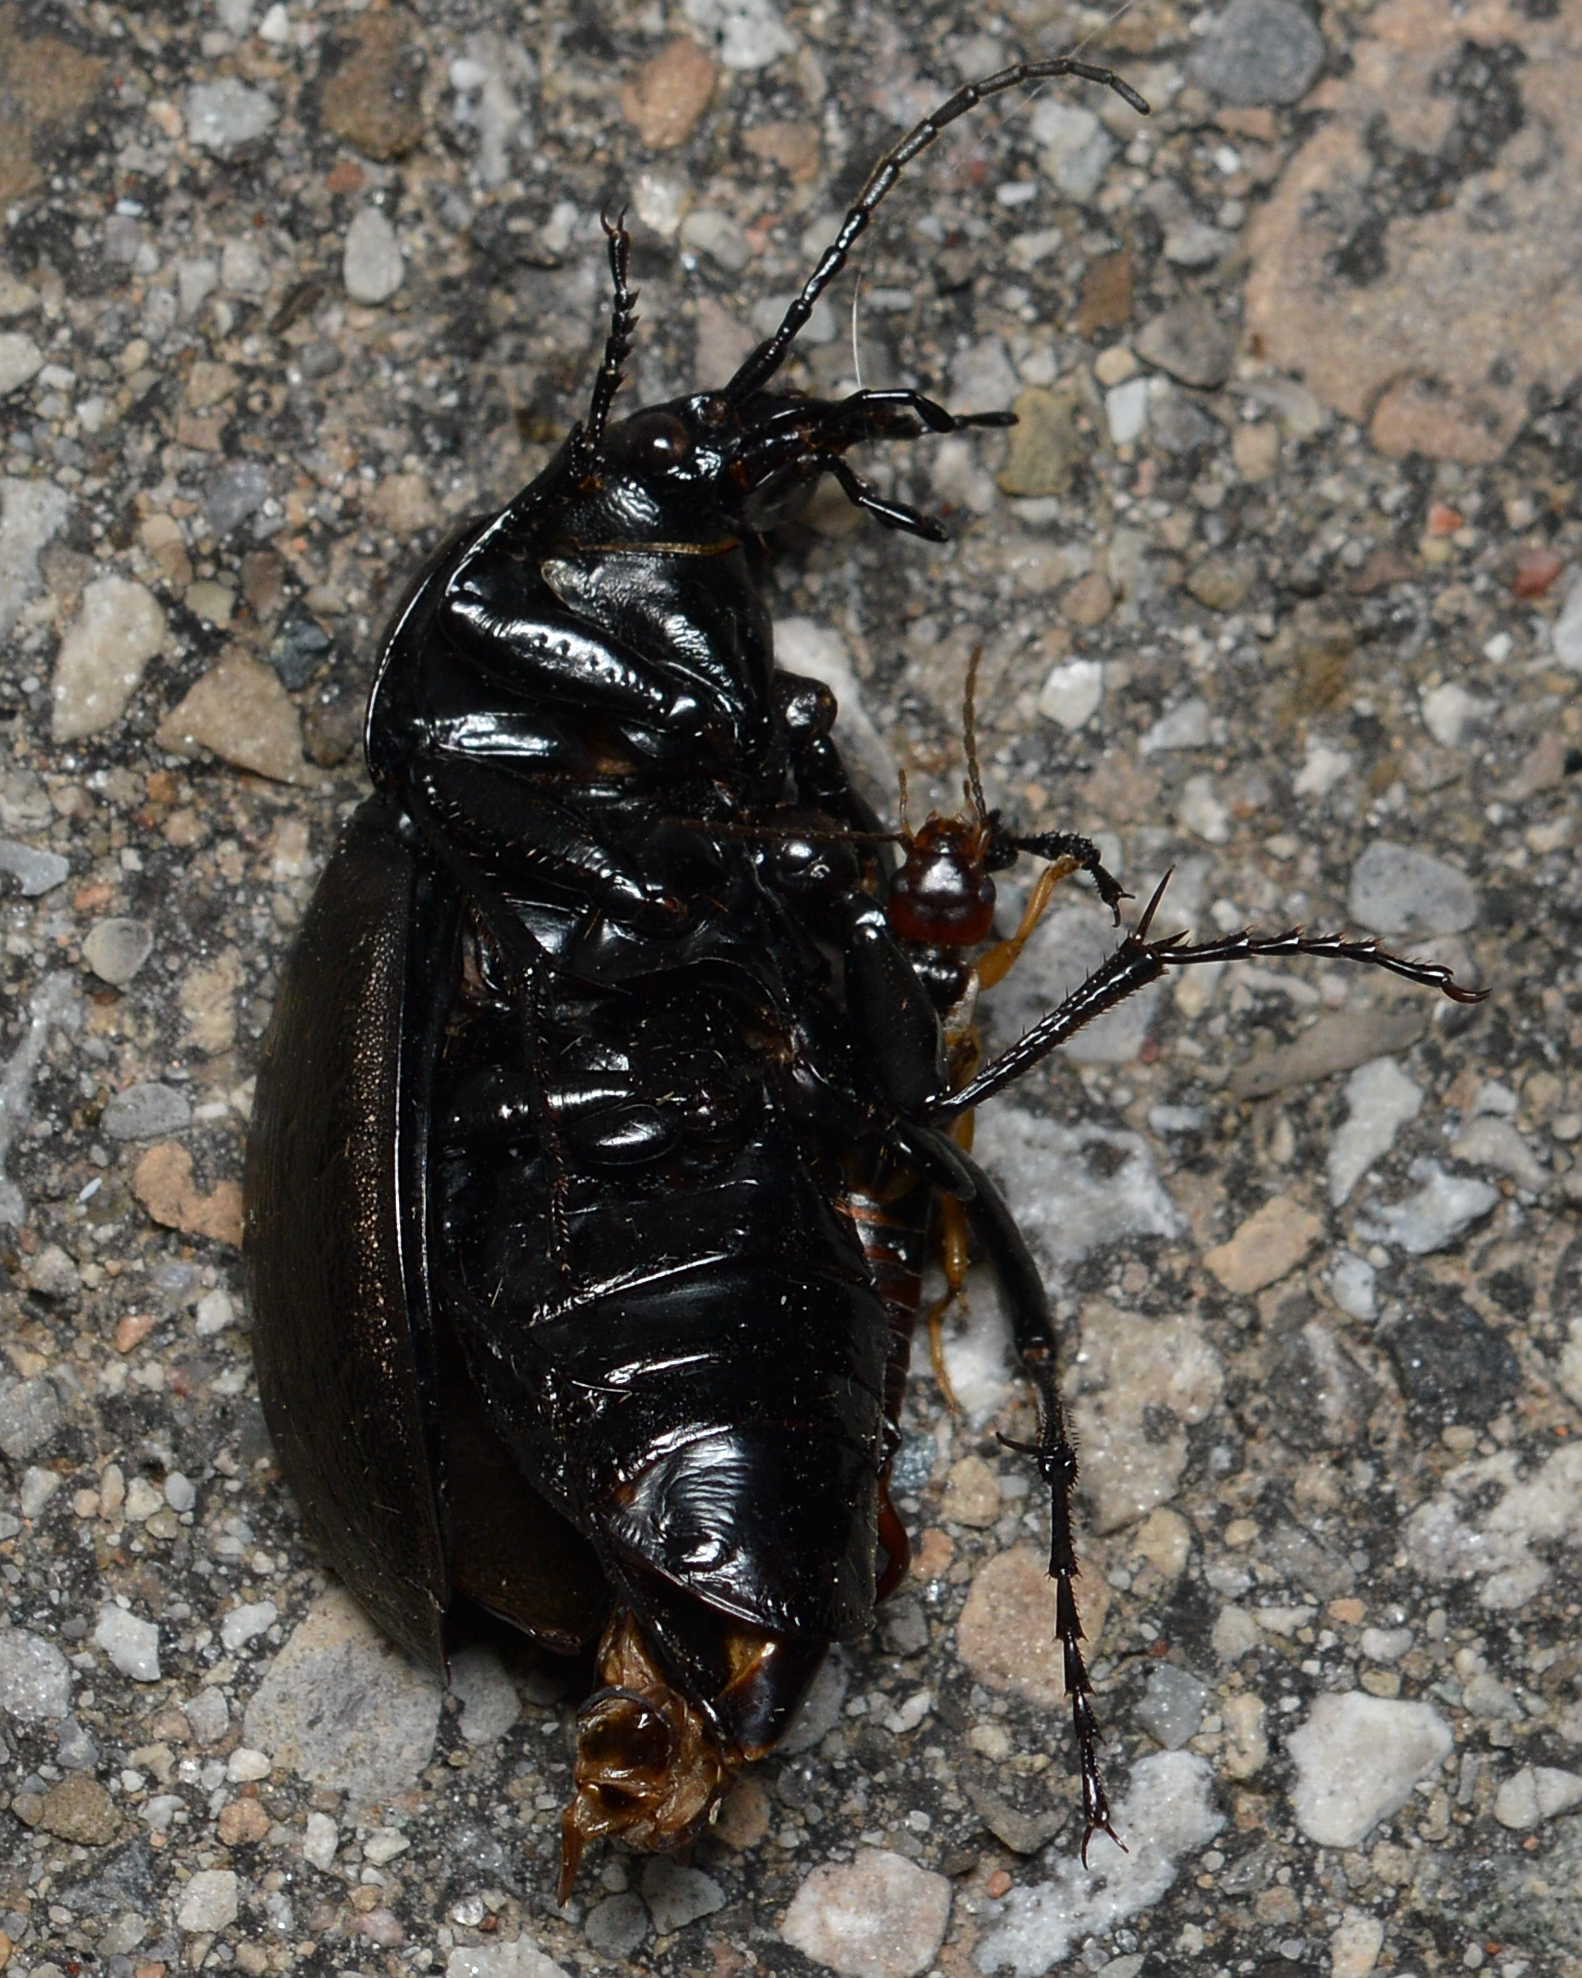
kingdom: Animalia
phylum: Arthropoda
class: Insecta
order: Coleoptera
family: Carabidae
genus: Carabus
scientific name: Carabus
